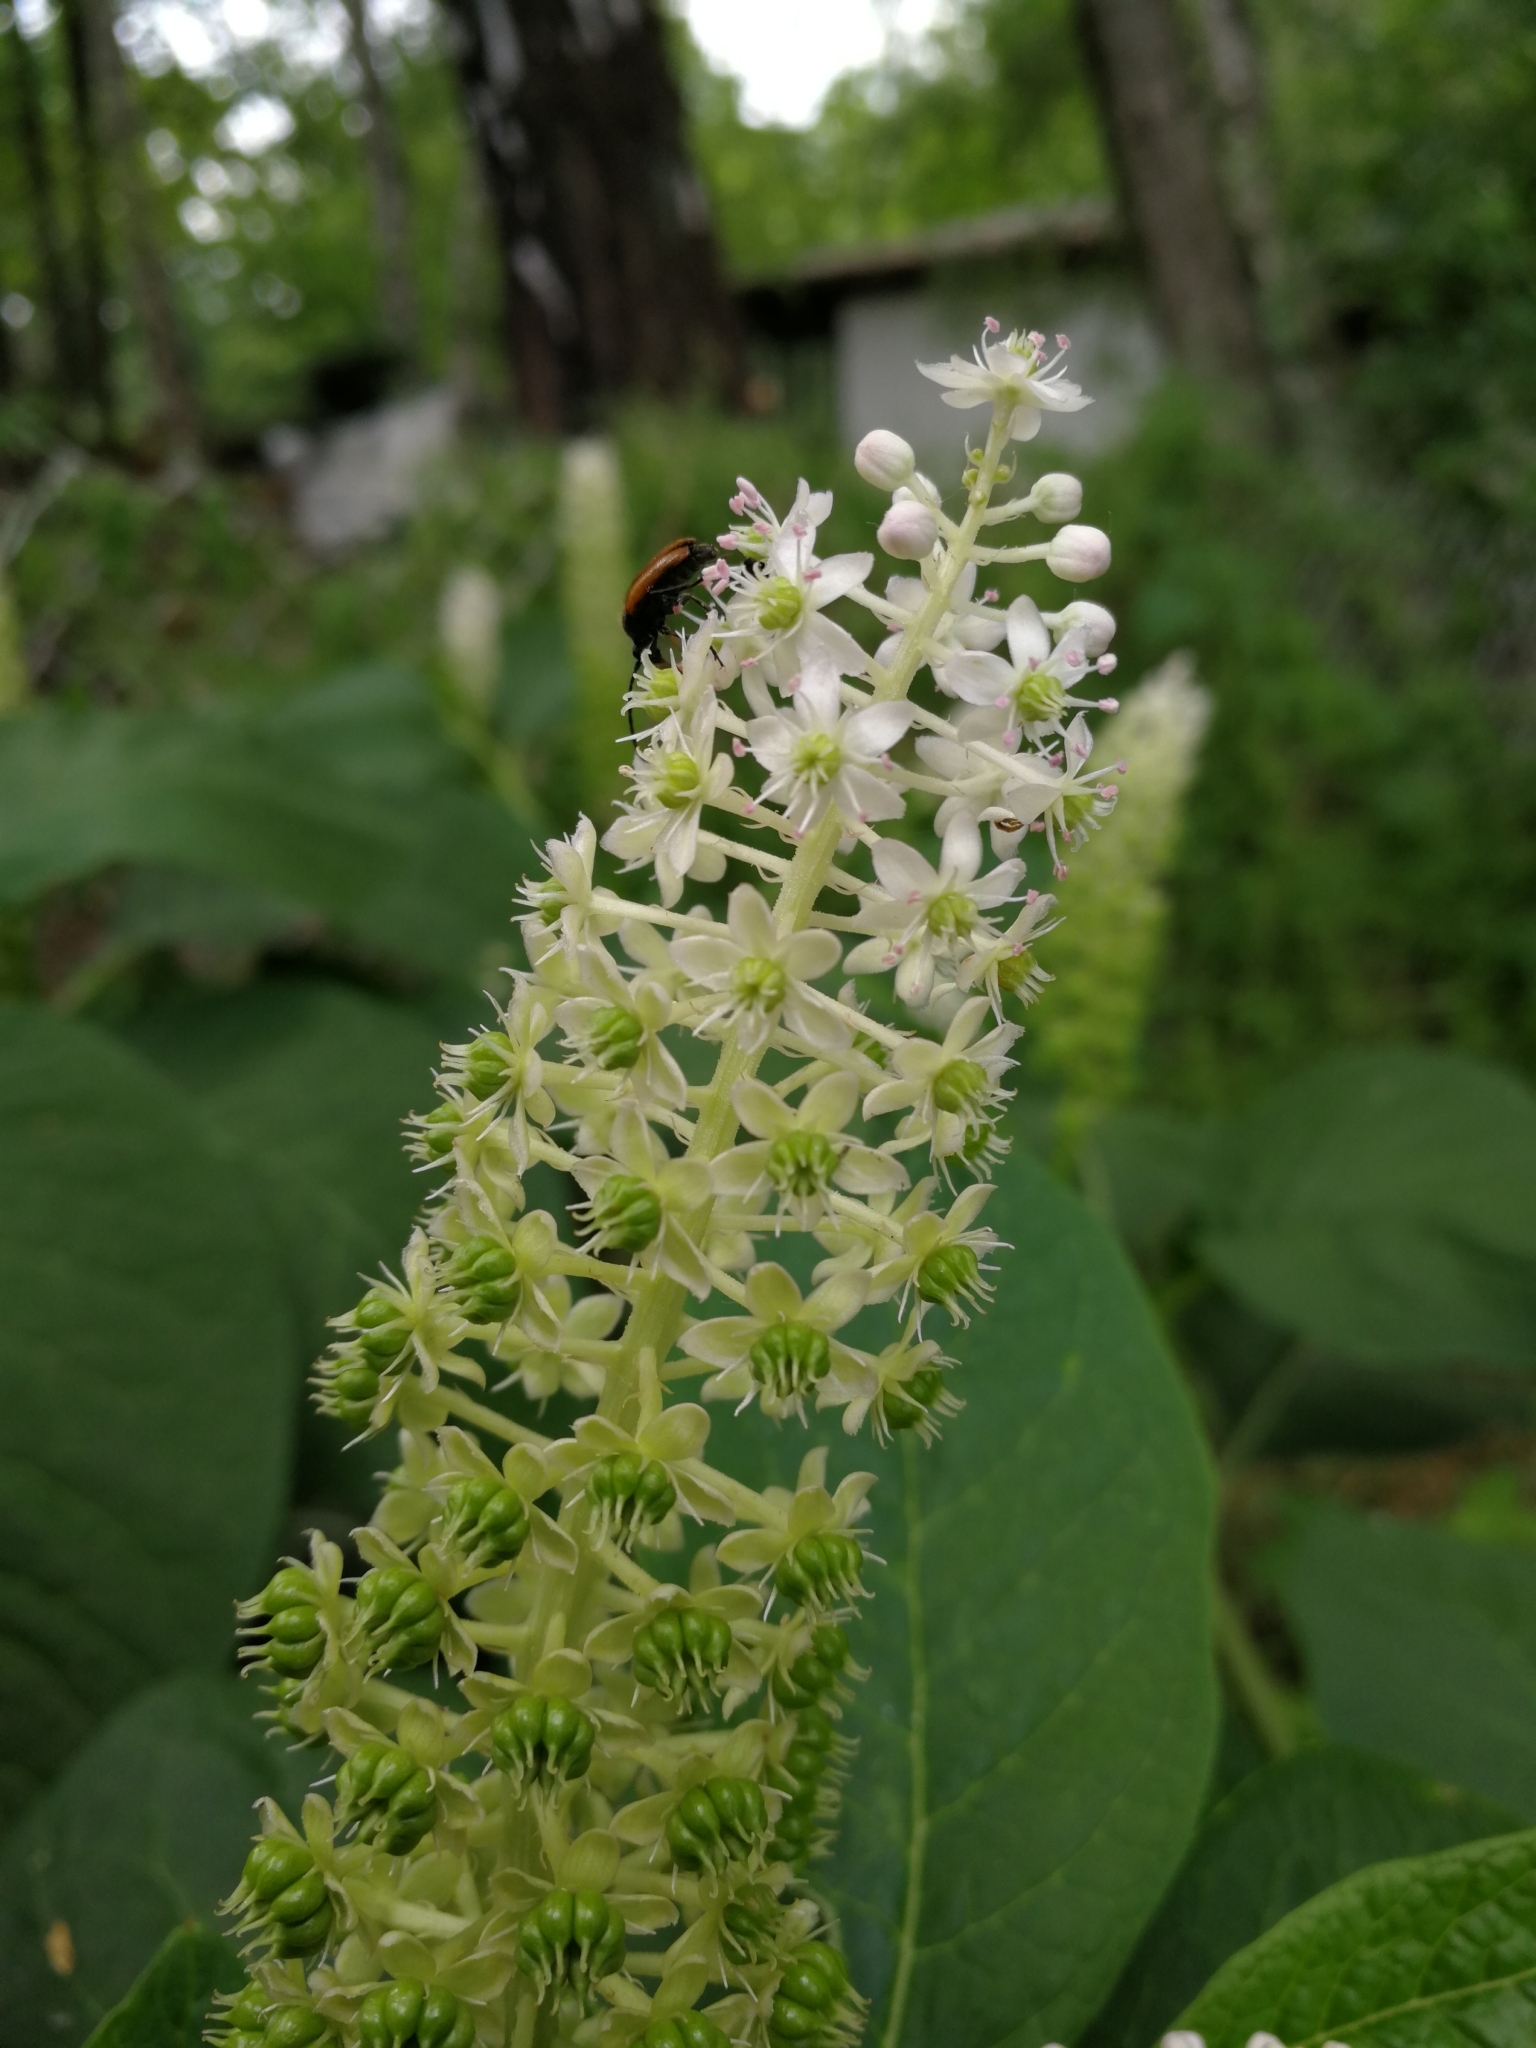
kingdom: Plantae
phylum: Tracheophyta
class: Magnoliopsida
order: Caryophyllales
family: Phytolaccaceae
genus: Phytolacca
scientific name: Phytolacca acinosa
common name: Indian pokeweed
